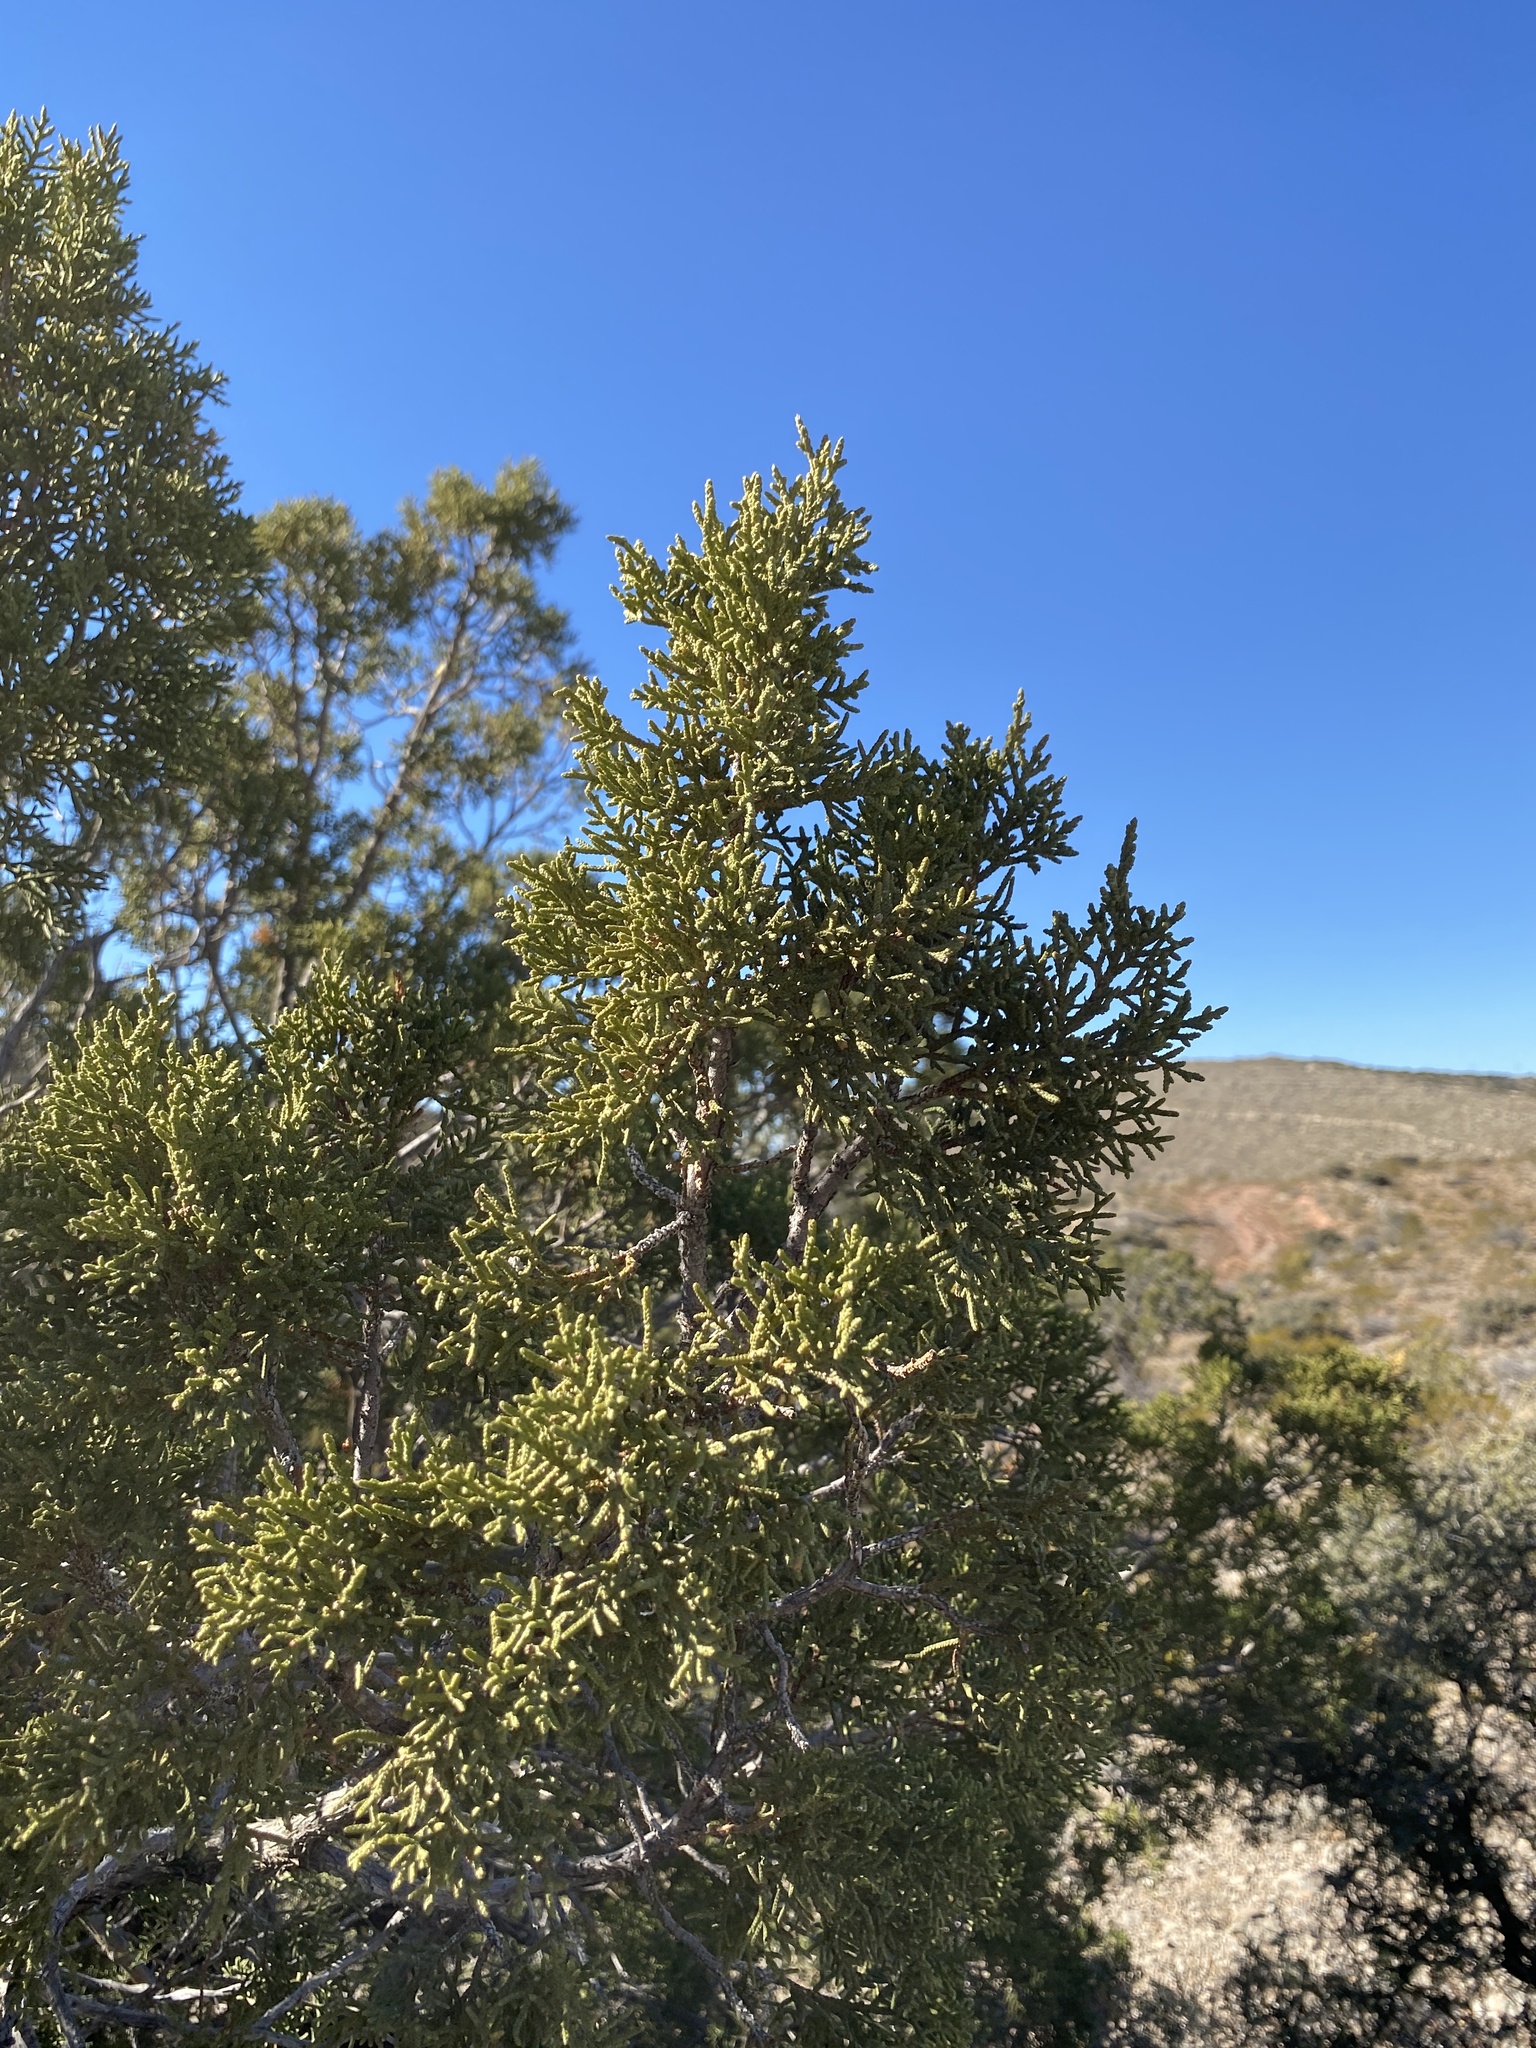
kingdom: Plantae
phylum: Tracheophyta
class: Pinopsida
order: Pinales
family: Cupressaceae
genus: Juniperus
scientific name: Juniperus monosperma
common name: One-seed juniper
